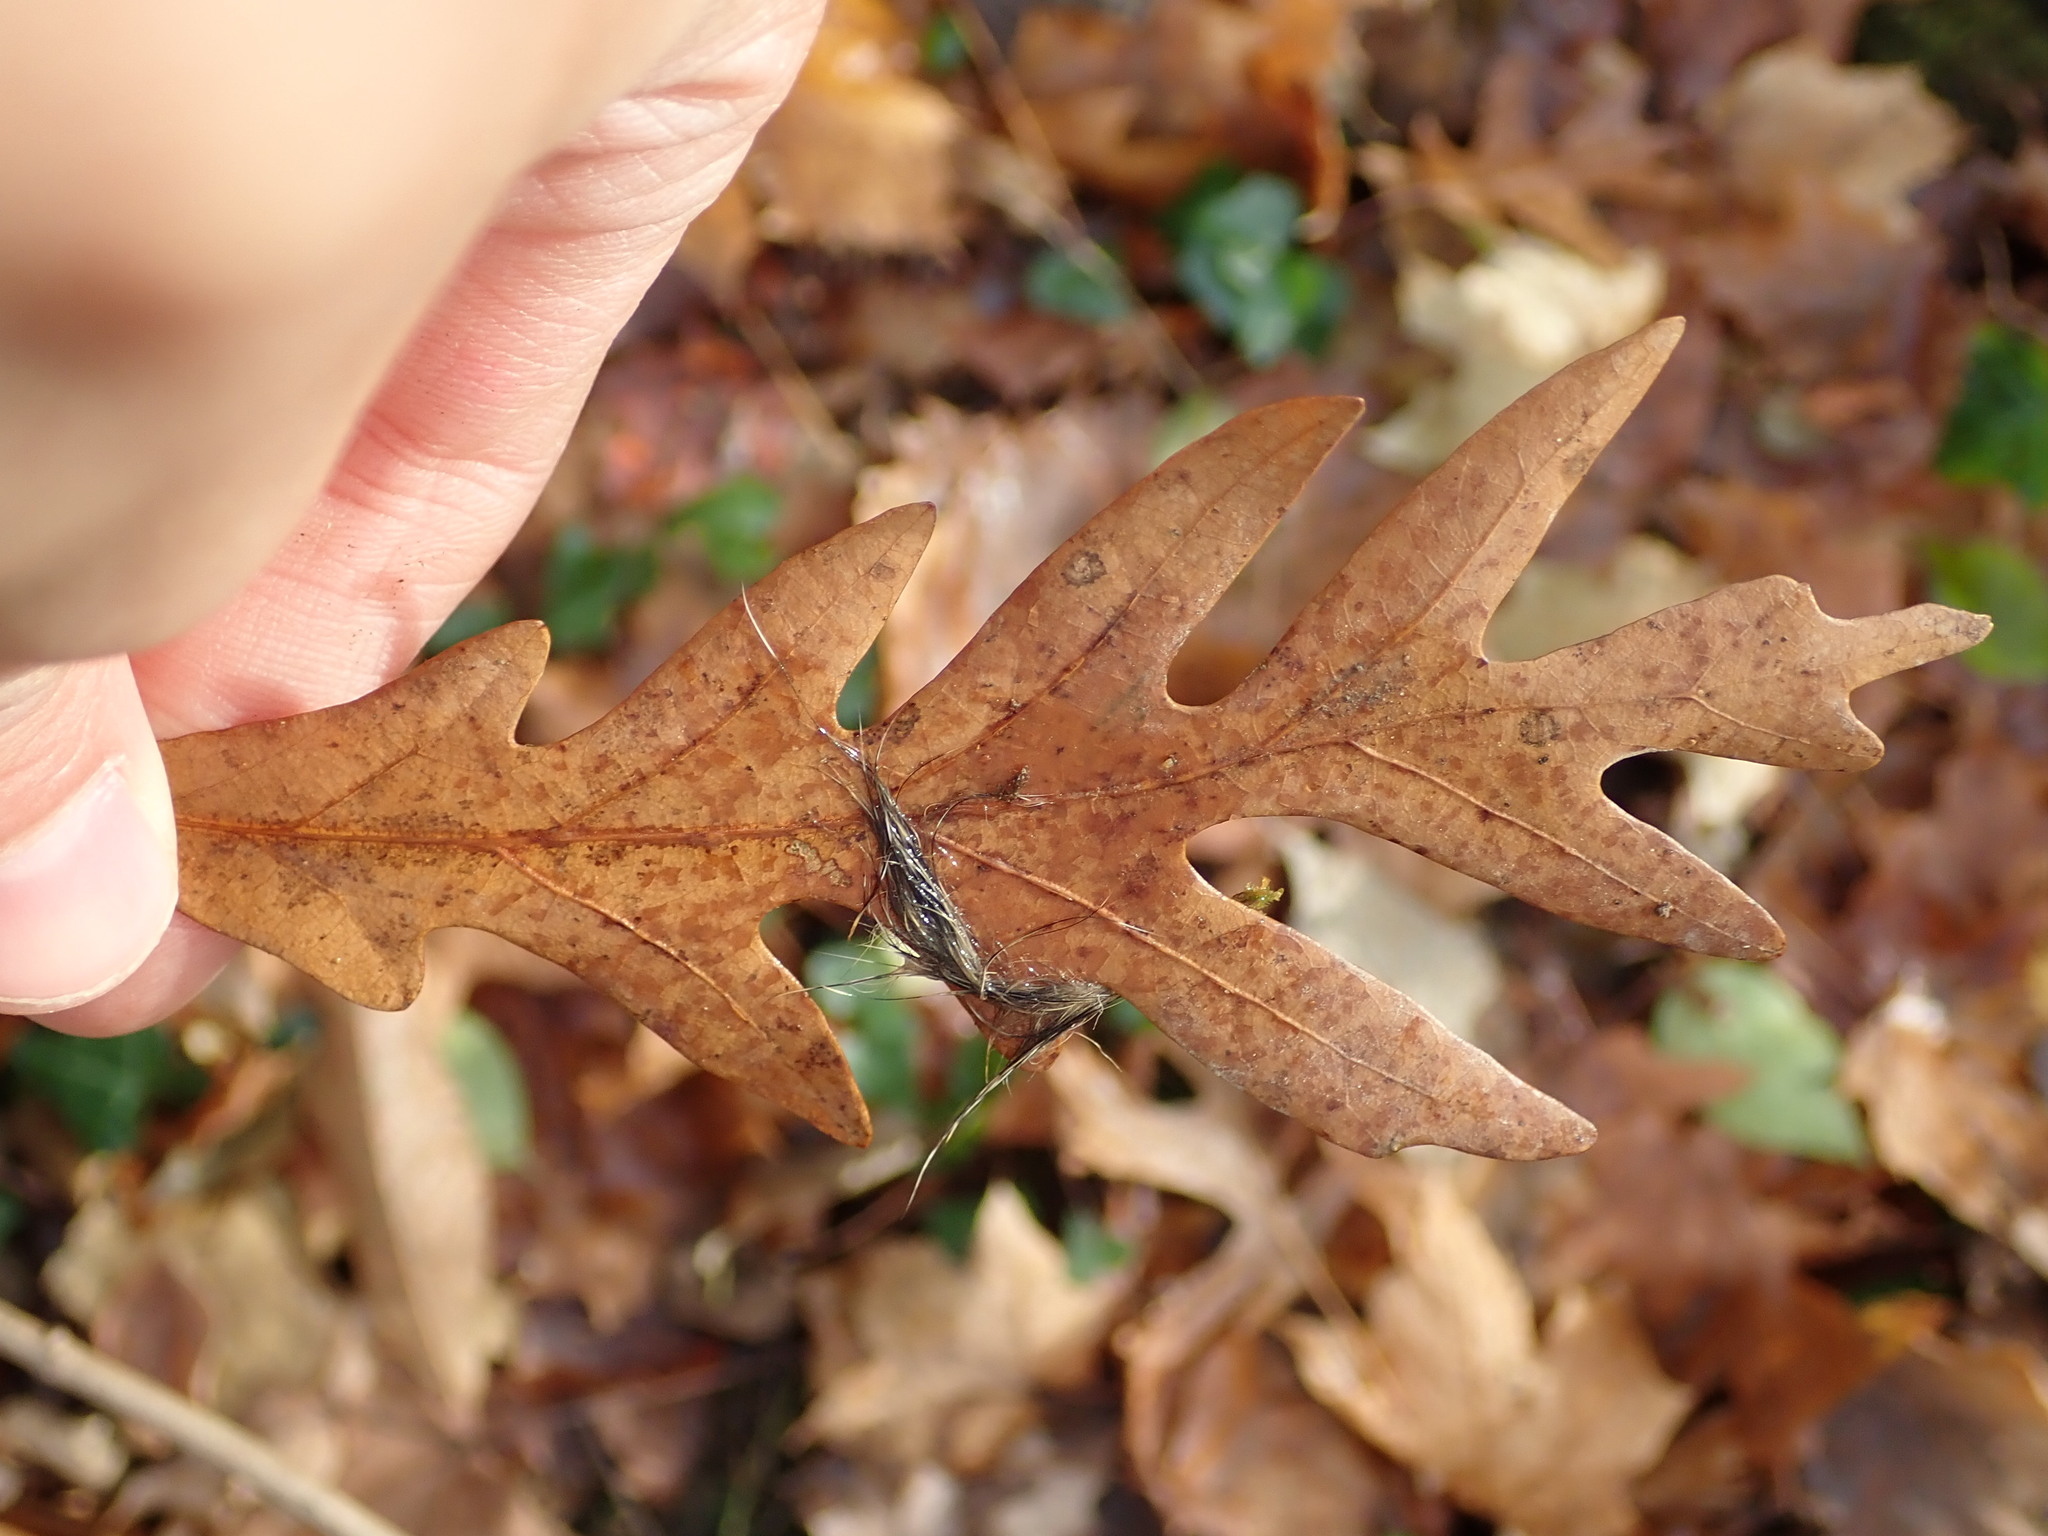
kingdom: Plantae
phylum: Tracheophyta
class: Magnoliopsida
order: Fagales
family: Fagaceae
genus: Quercus
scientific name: Quercus alba
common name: White oak
